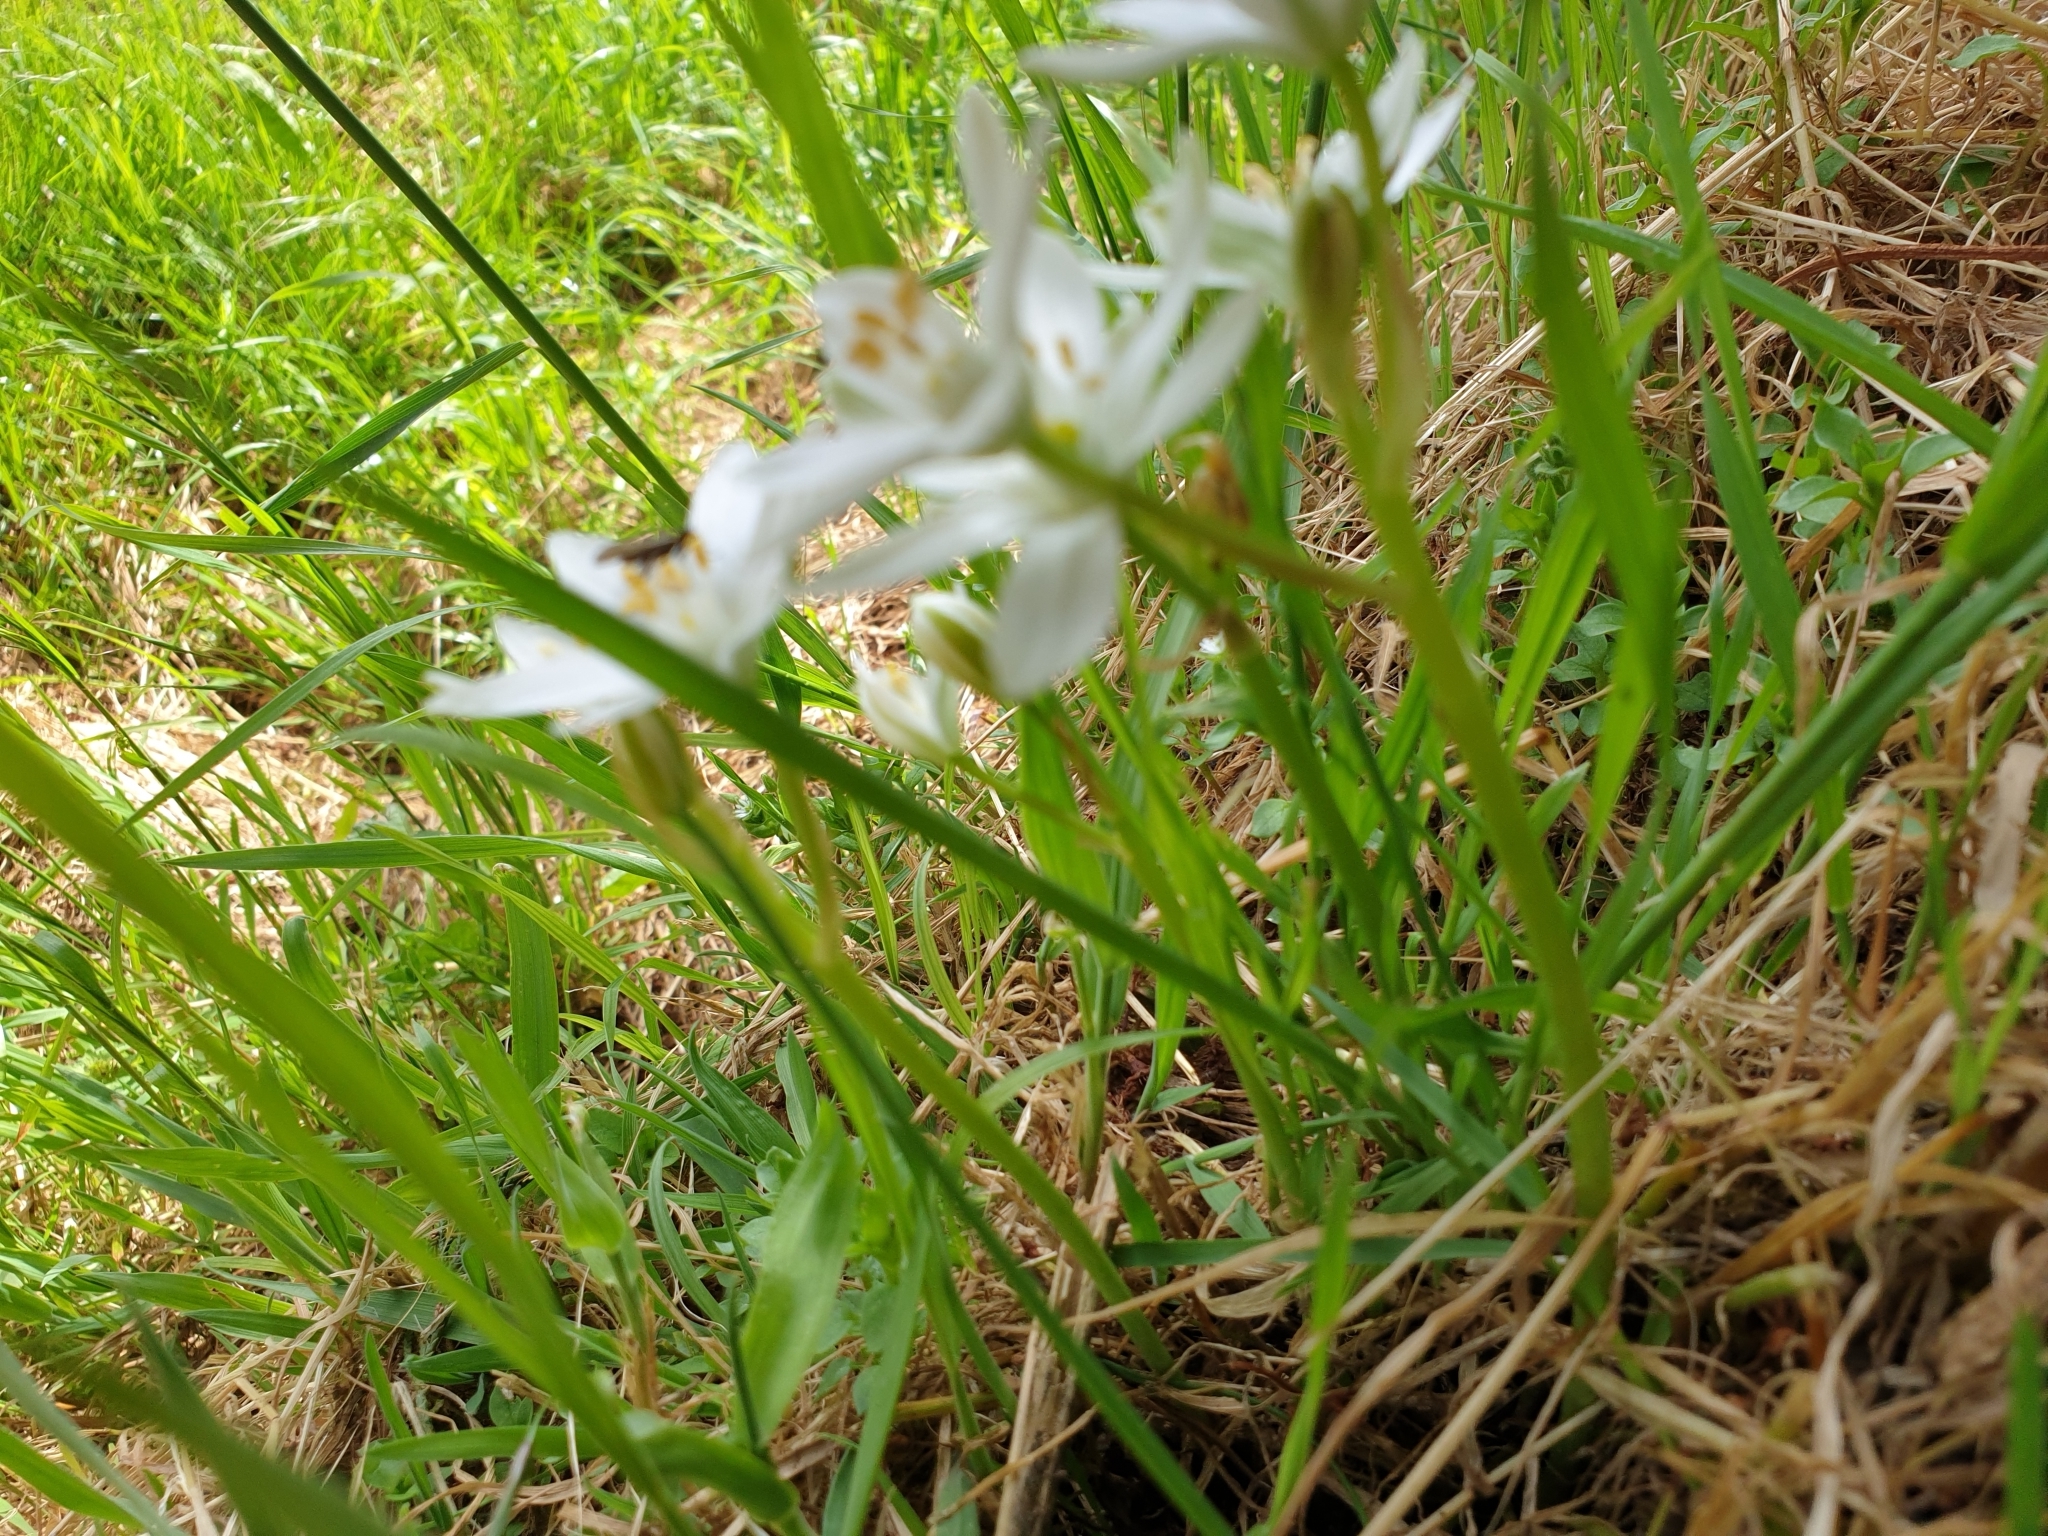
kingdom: Plantae
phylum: Tracheophyta
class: Liliopsida
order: Asparagales
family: Asparagaceae
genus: Ornithogalum
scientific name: Ornithogalum umbellatum
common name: Garden star-of-bethlehem
